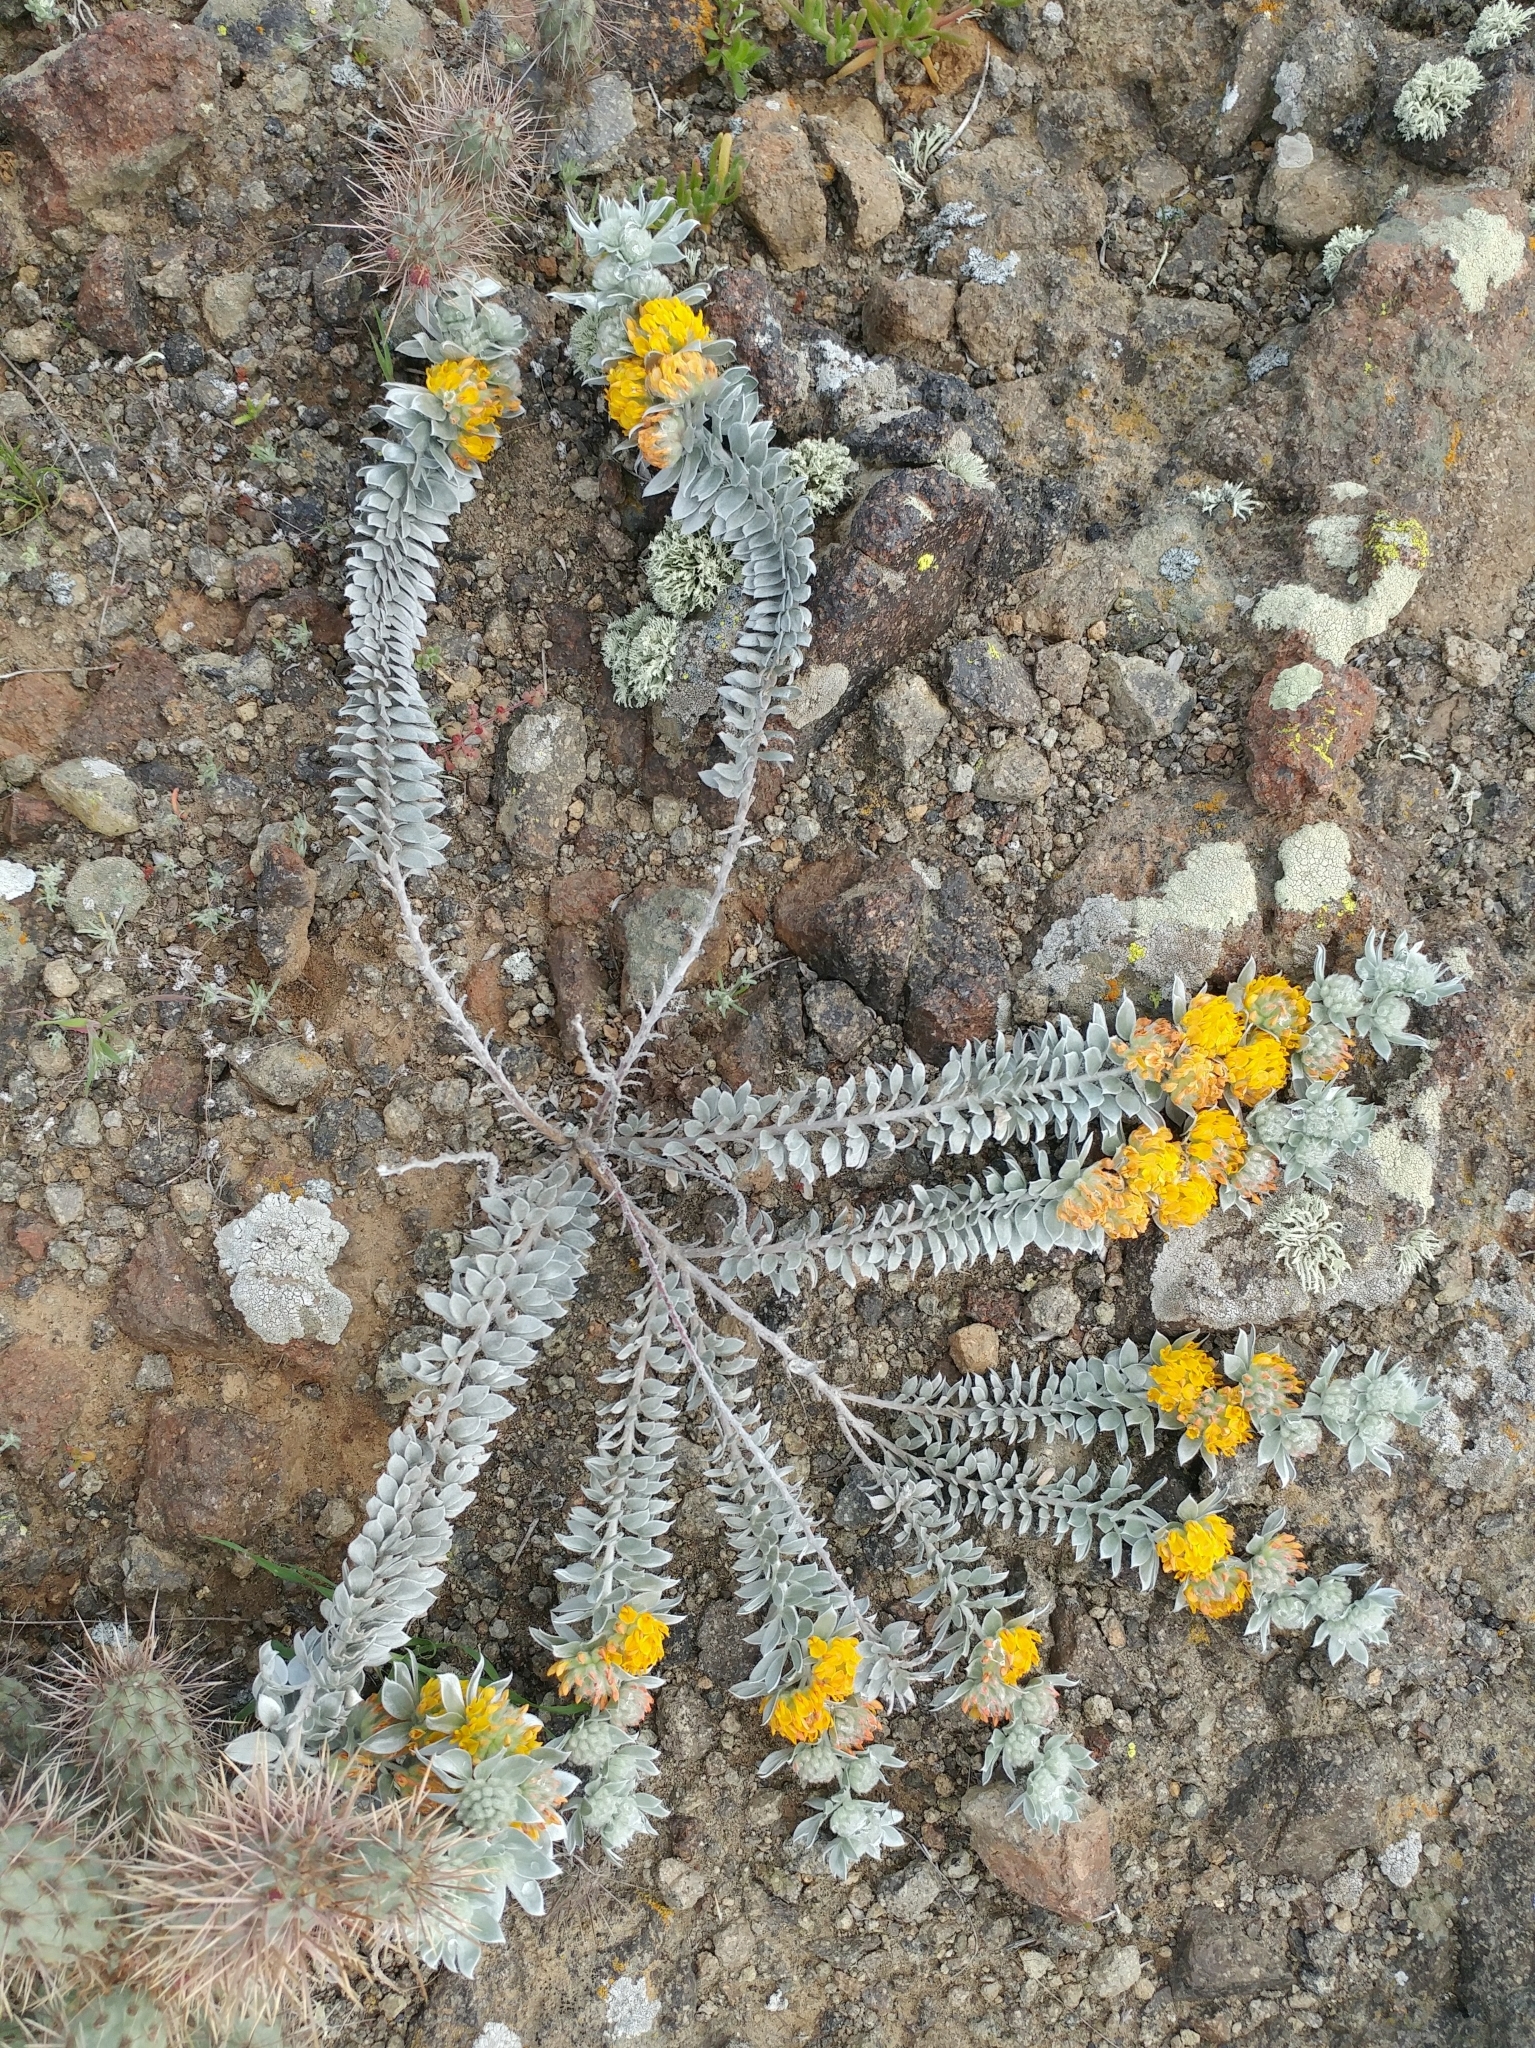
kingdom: Plantae
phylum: Tracheophyta
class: Magnoliopsida
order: Fabales
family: Fabaceae
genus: Acmispon
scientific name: Acmispon argophyllus
